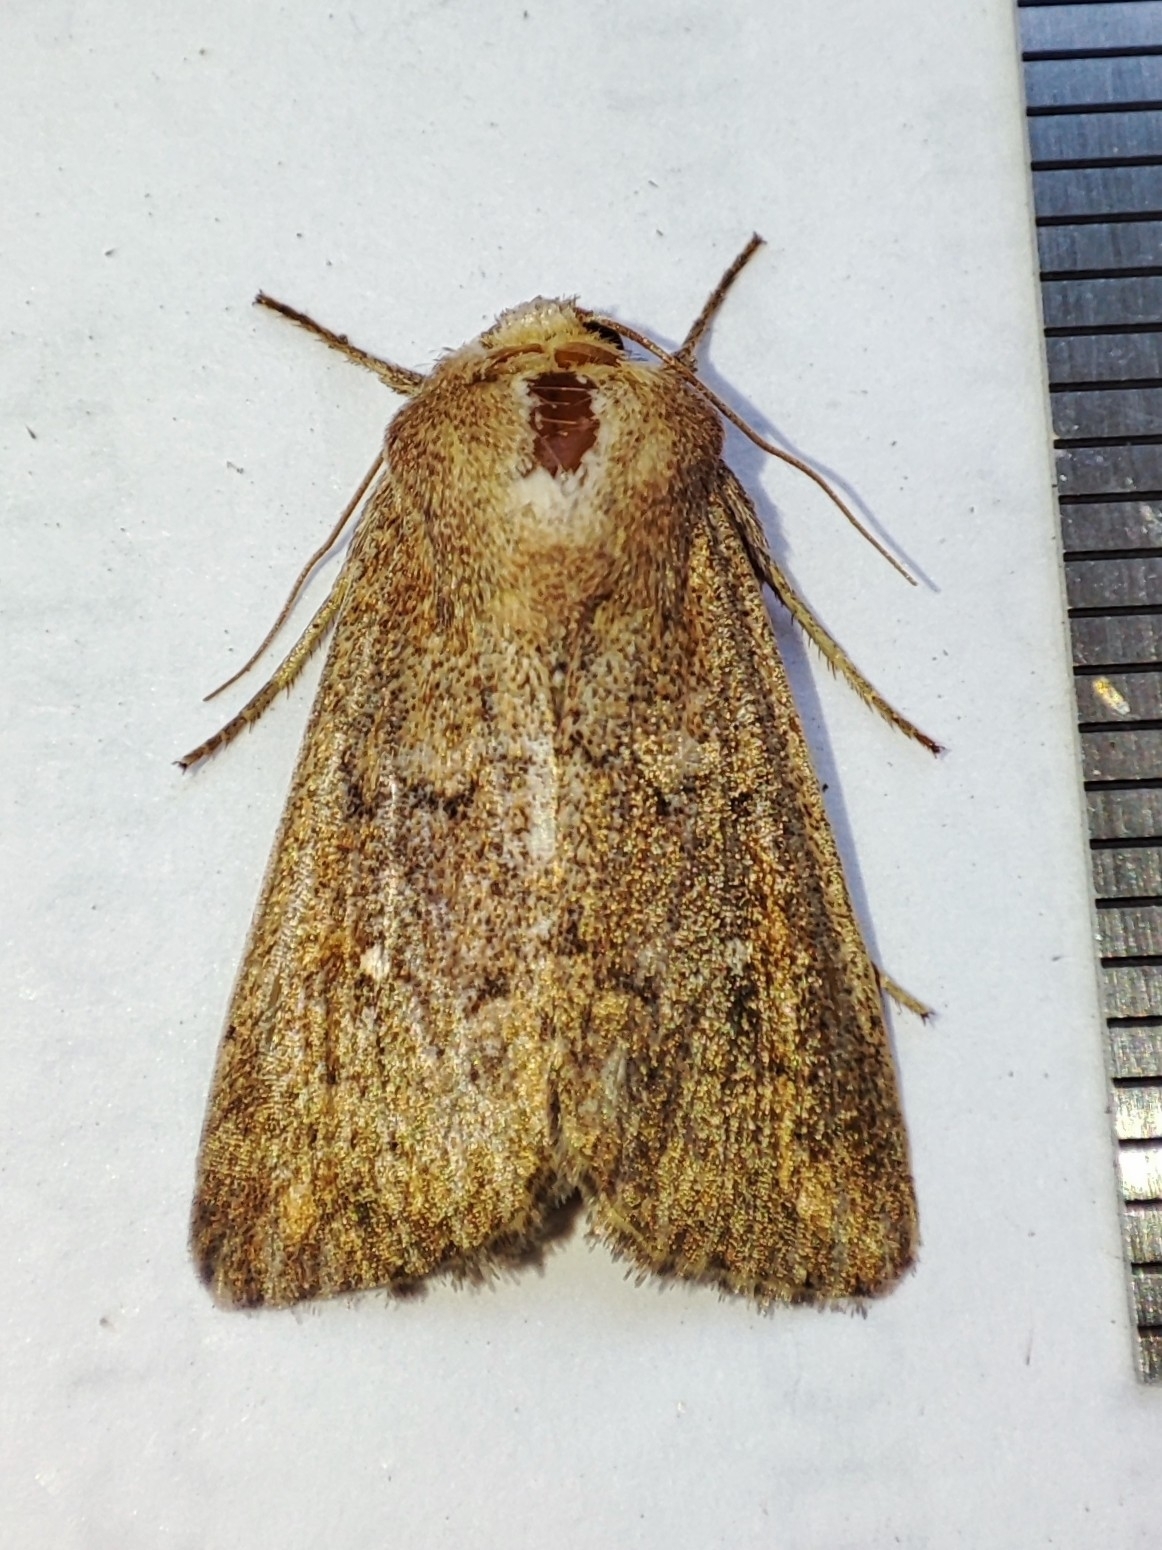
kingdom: Animalia
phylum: Arthropoda
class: Insecta
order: Lepidoptera
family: Noctuidae
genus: Mythimna
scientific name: Mythimna albipuncta
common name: White-point
